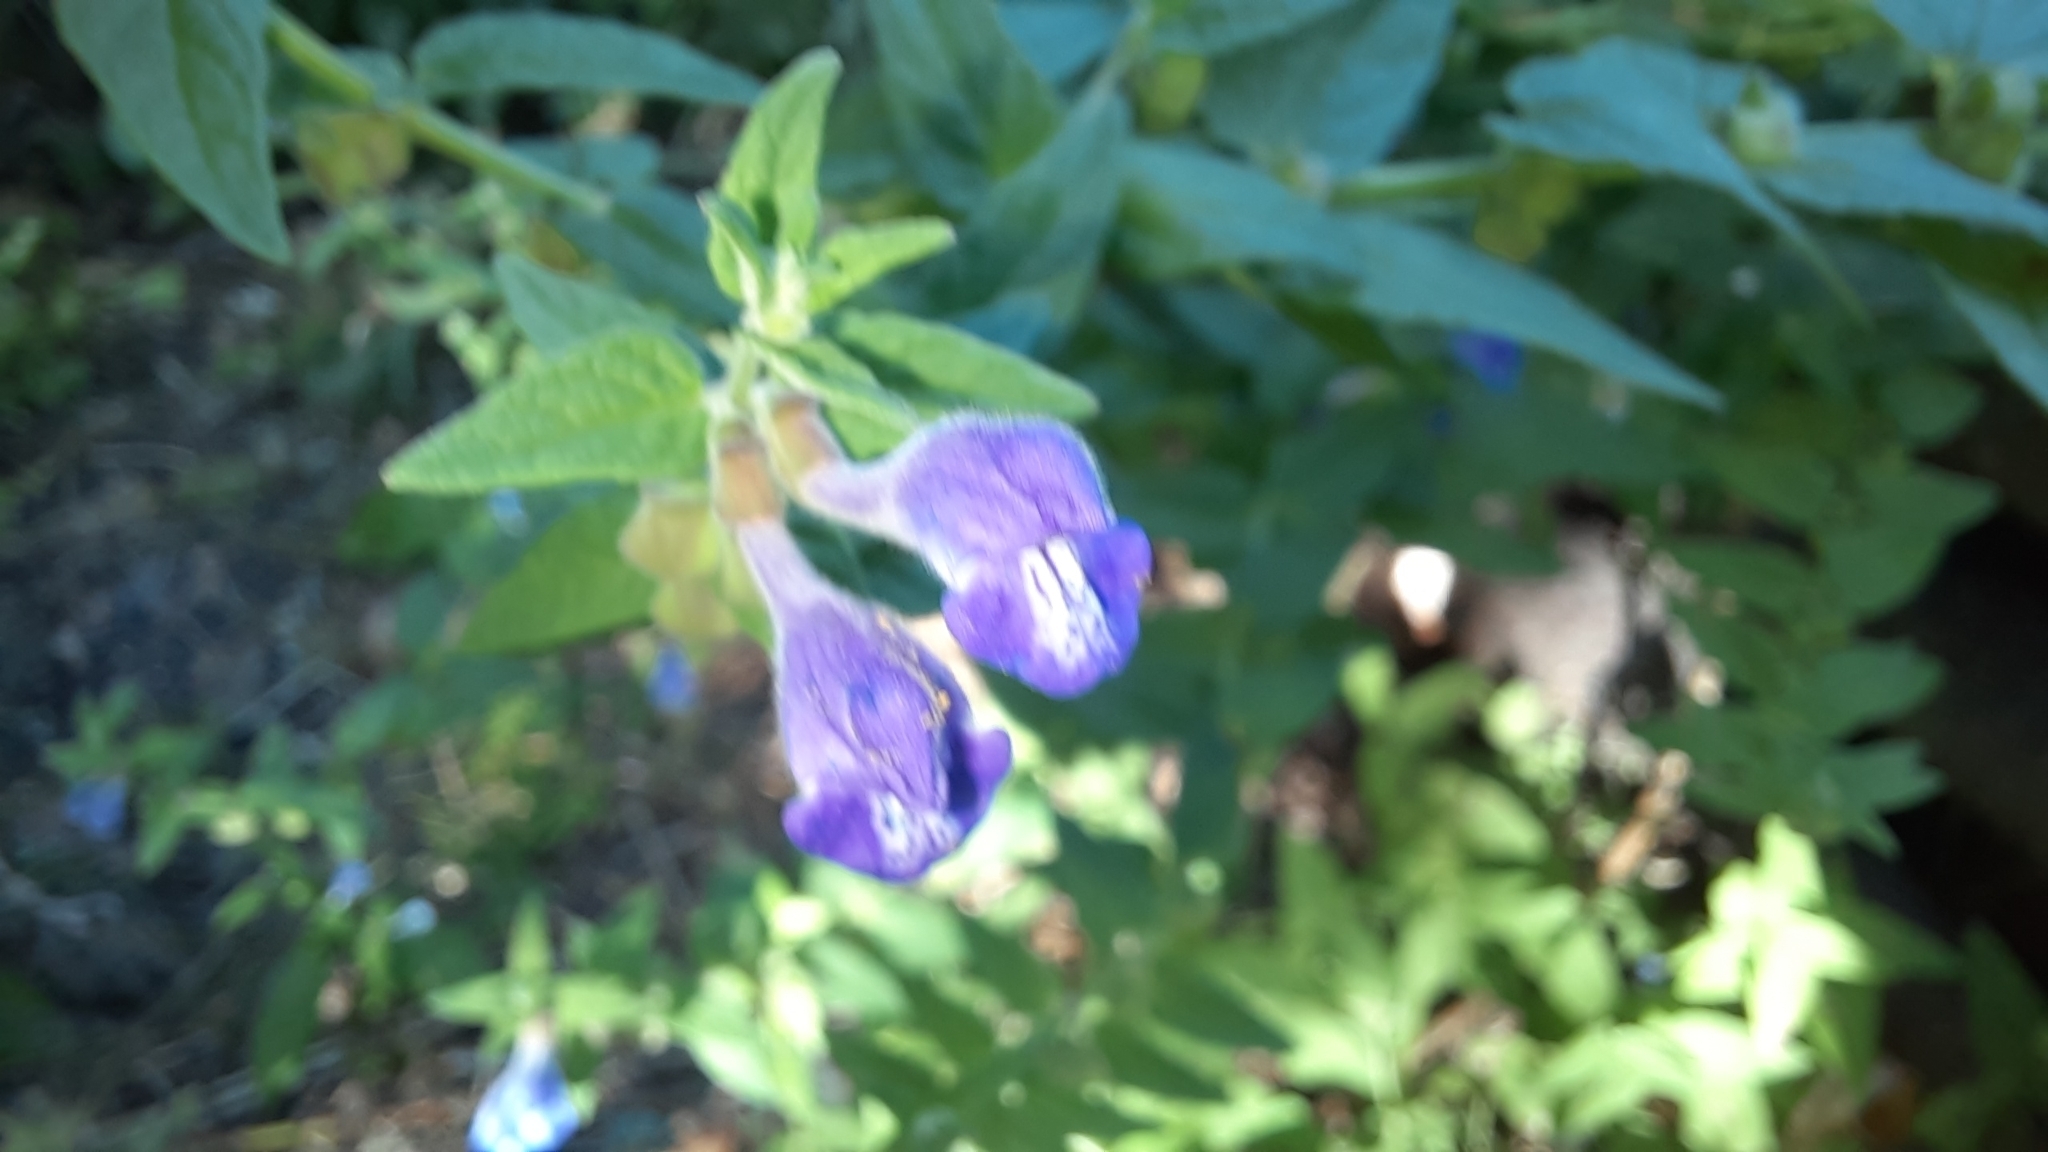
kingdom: Plantae
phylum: Tracheophyta
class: Magnoliopsida
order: Lamiales
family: Lamiaceae
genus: Scutellaria
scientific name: Scutellaria galericulata
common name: Skullcap
